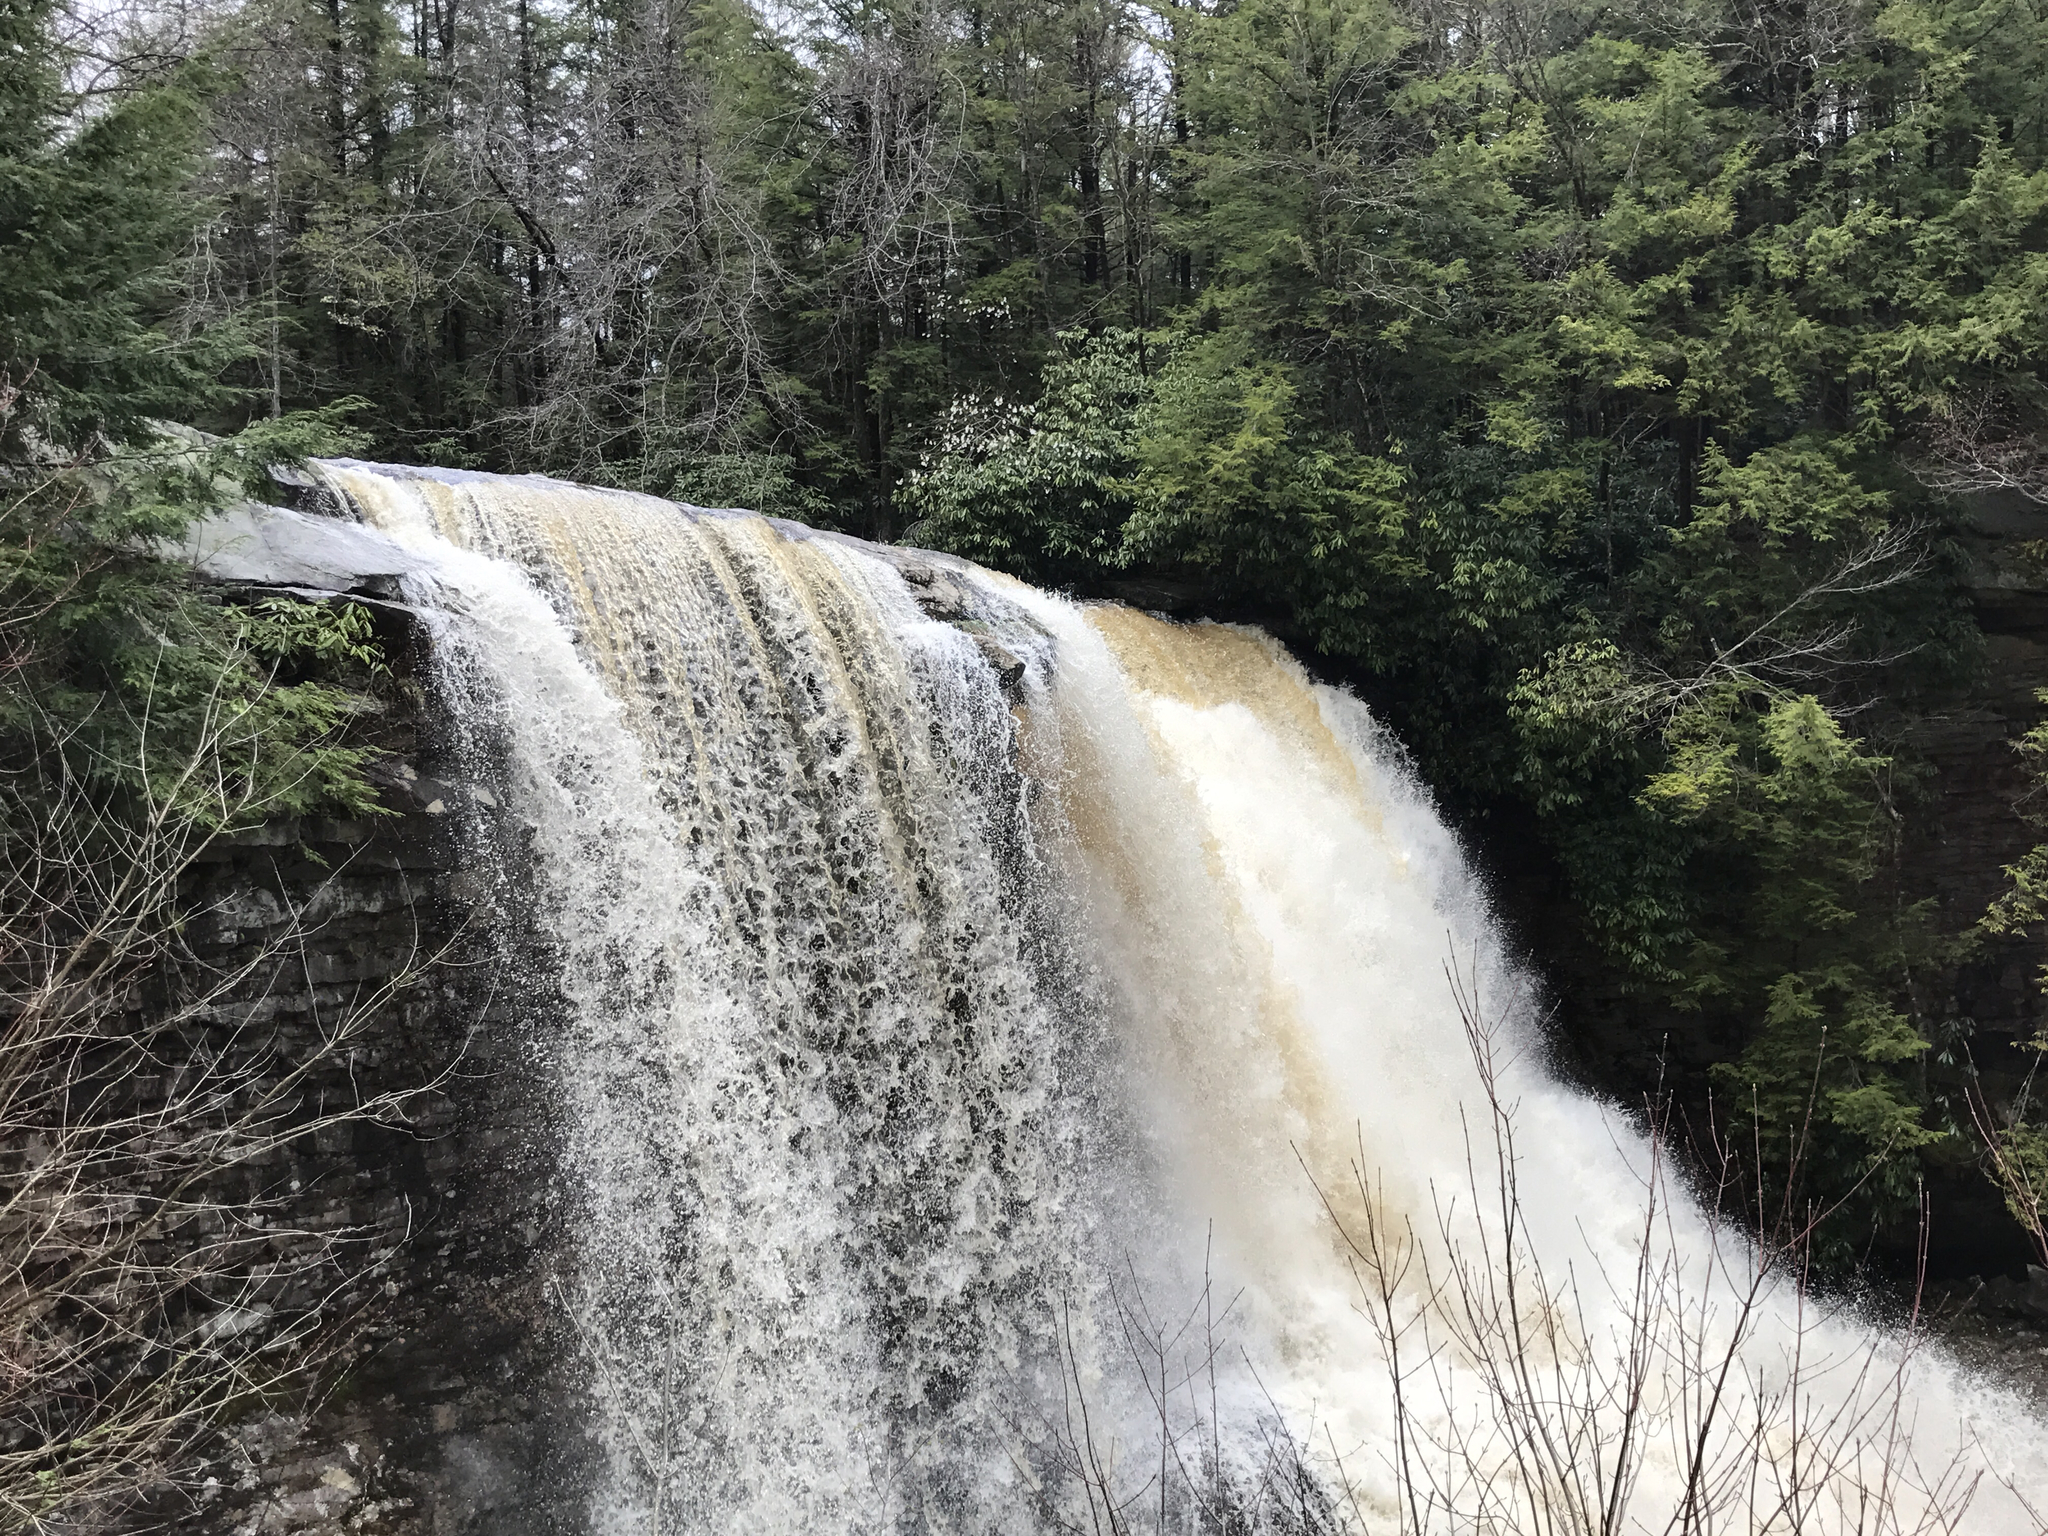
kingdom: Plantae
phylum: Tracheophyta
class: Magnoliopsida
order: Ericales
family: Ericaceae
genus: Rhododendron
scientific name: Rhododendron maximum
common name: Great rhododendron
